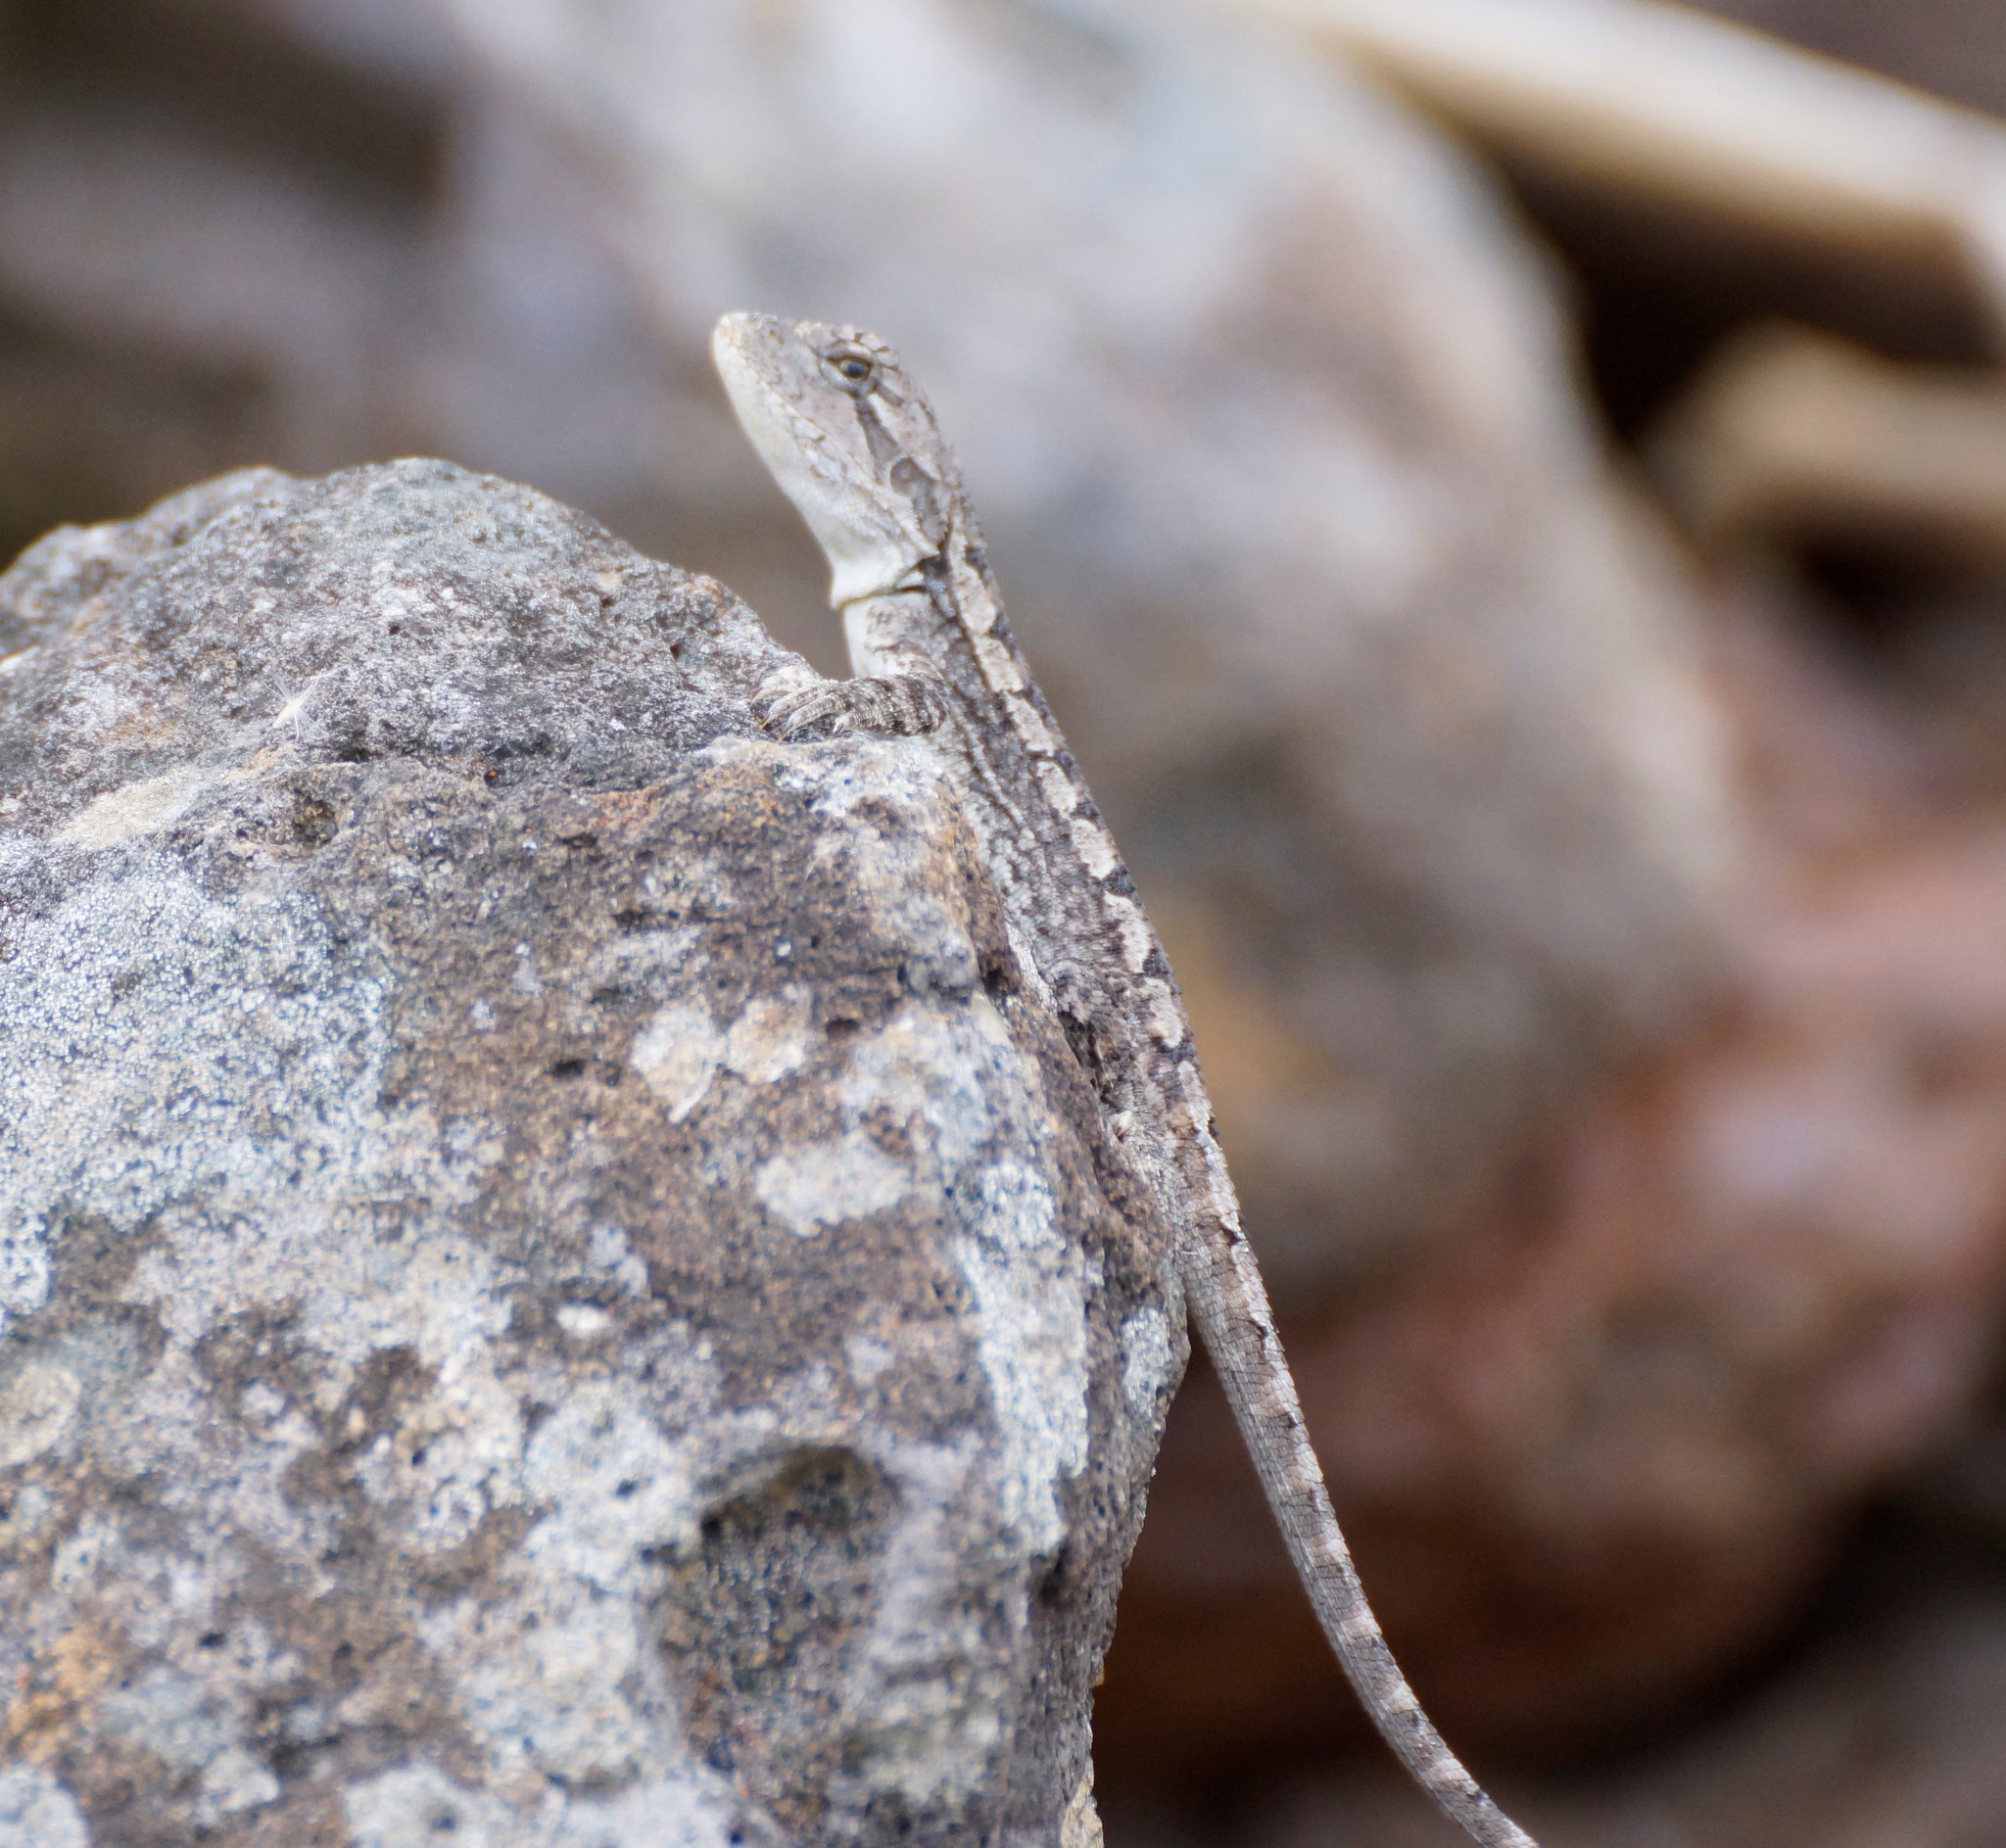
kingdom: Animalia
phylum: Chordata
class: Squamata
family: Agamidae
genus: Amphibolurus
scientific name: Amphibolurus muricatus
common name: Jacky lizard
